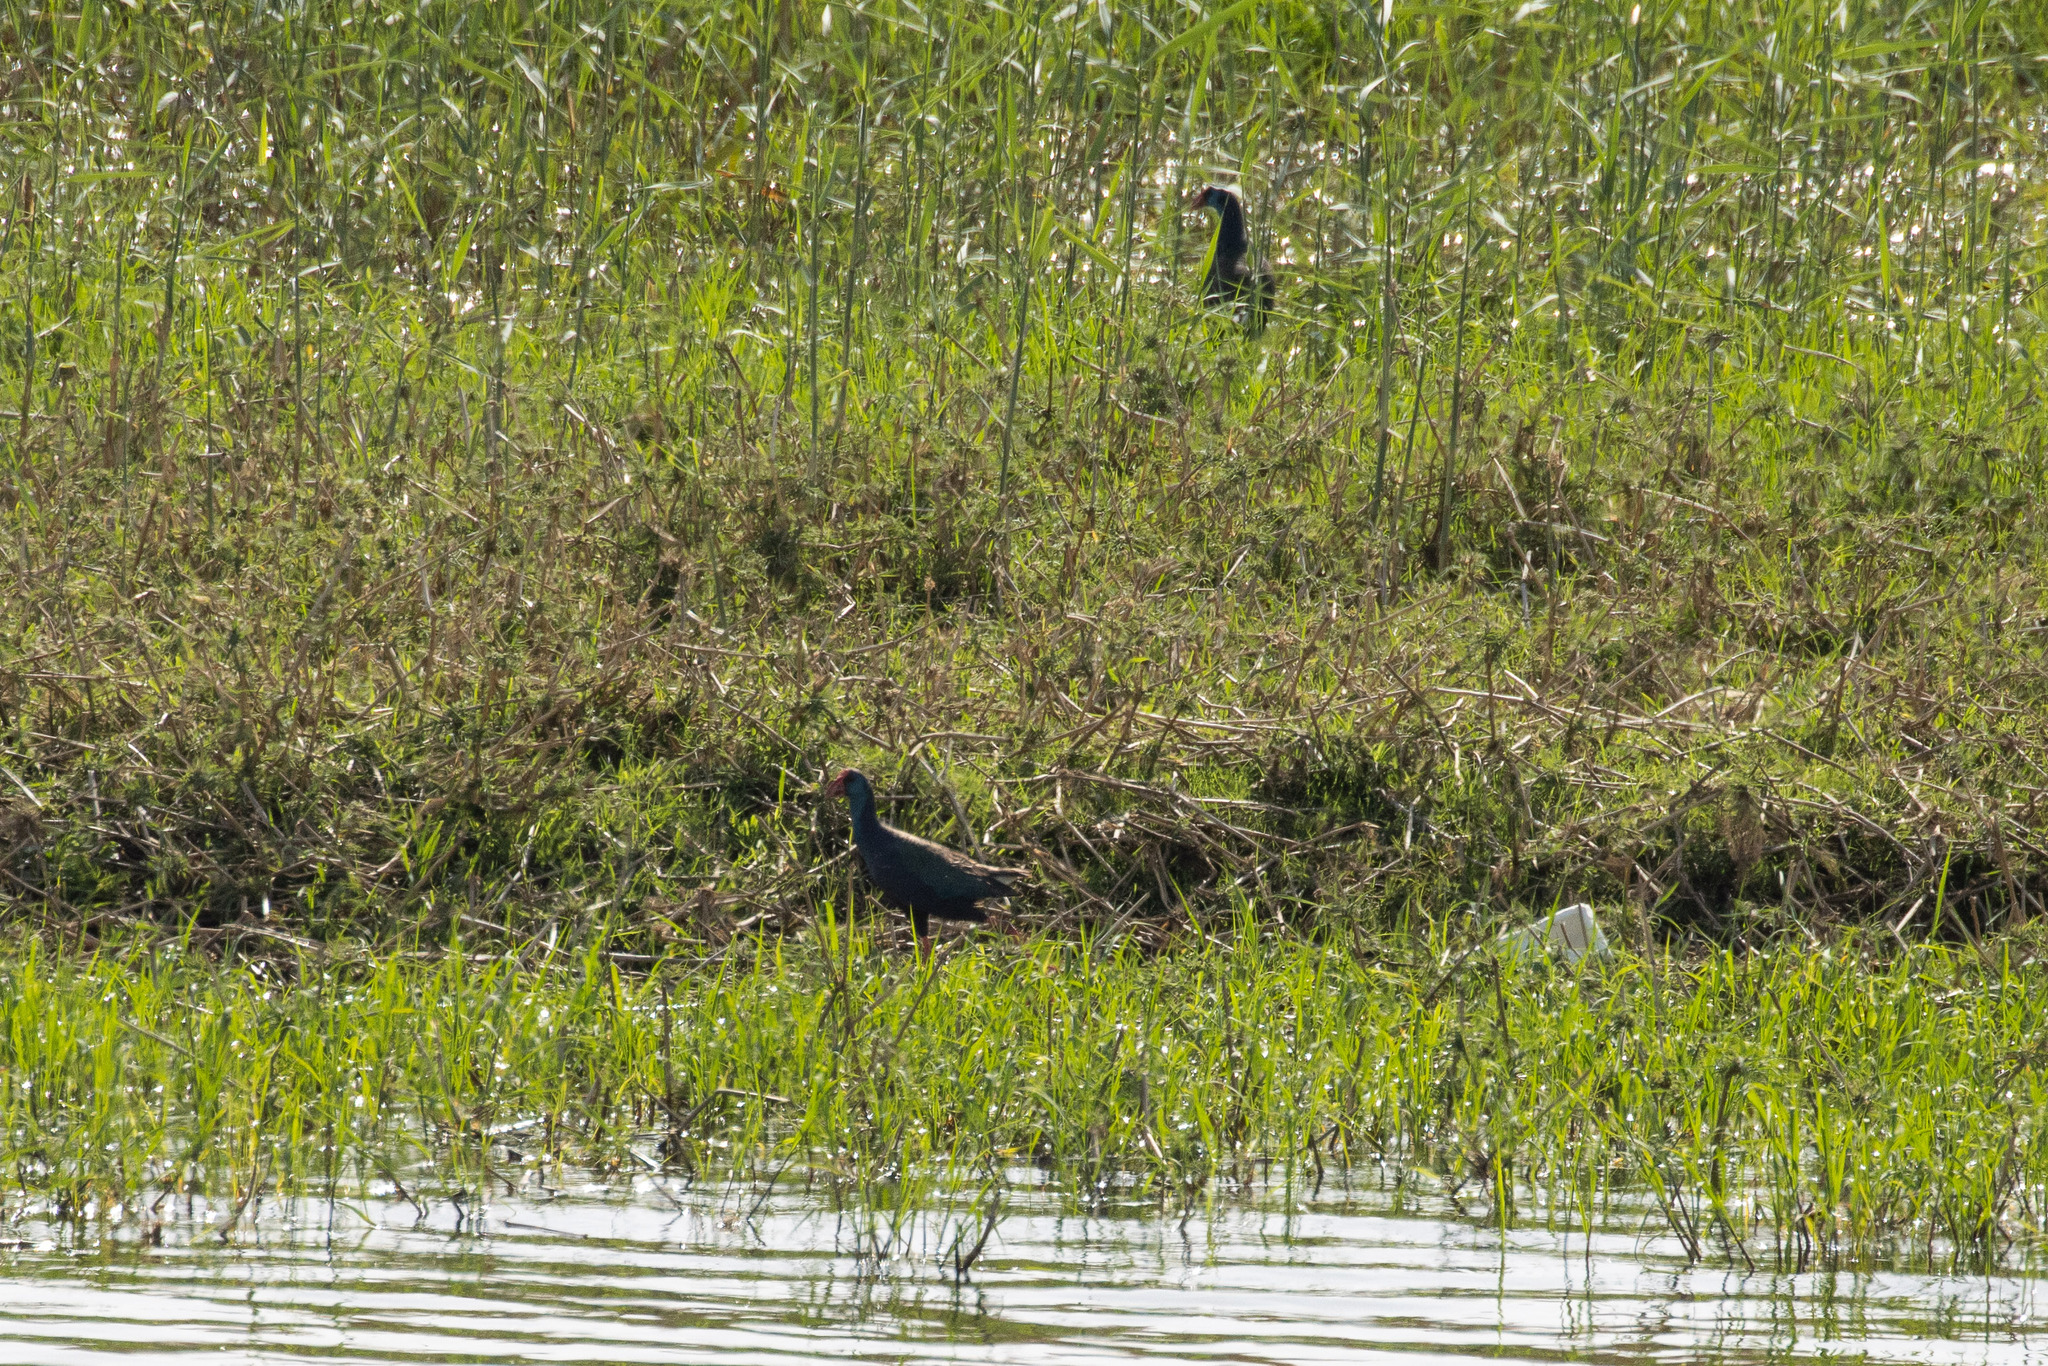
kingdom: Animalia
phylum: Chordata
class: Aves
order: Gruiformes
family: Rallidae
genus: Porphyrio
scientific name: Porphyrio porphyrio
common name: Purple swamphen
